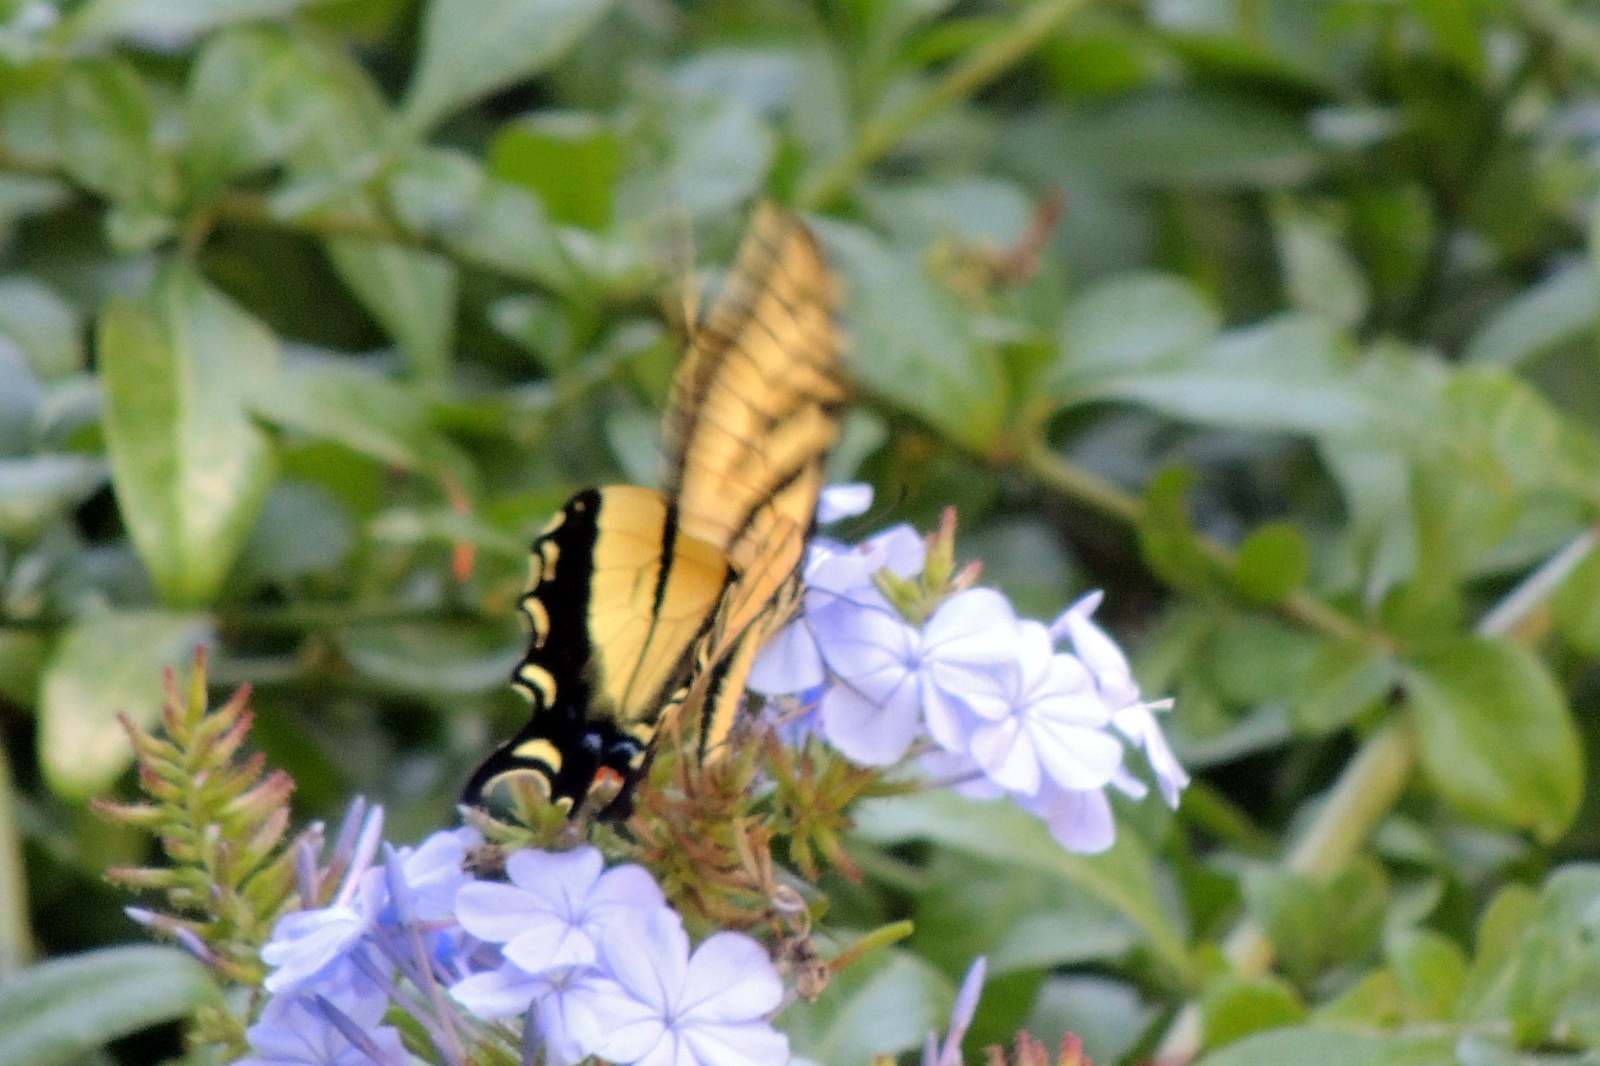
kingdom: Animalia
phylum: Arthropoda
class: Insecta
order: Lepidoptera
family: Papilionidae
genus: Papilio
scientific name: Papilio rutulus
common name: Western tiger swallowtail
